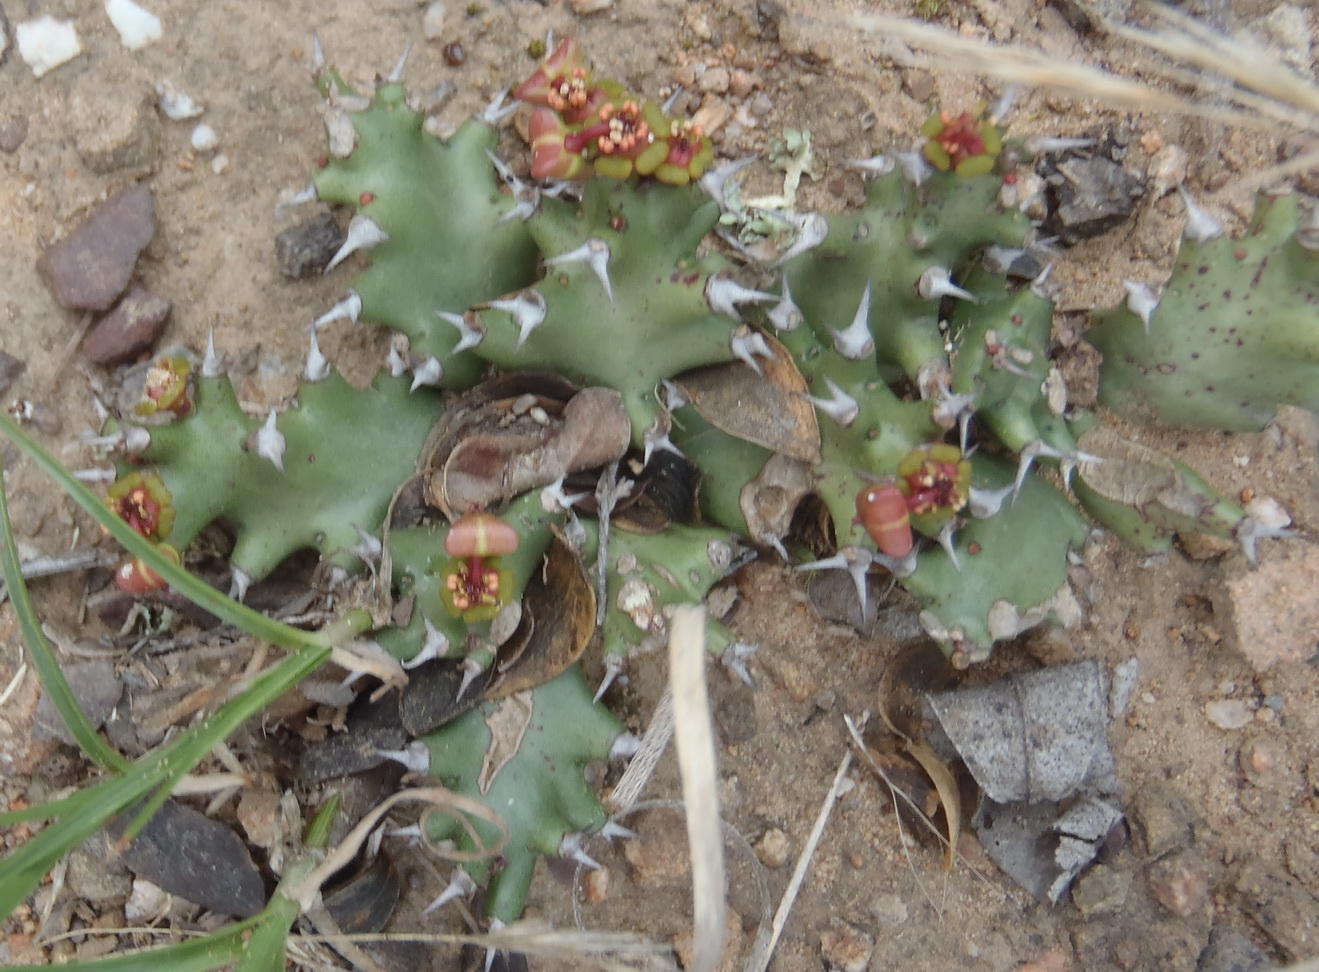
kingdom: Plantae
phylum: Tracheophyta
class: Magnoliopsida
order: Malpighiales
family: Euphorbiaceae
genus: Euphorbia
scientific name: Euphorbia stellata
